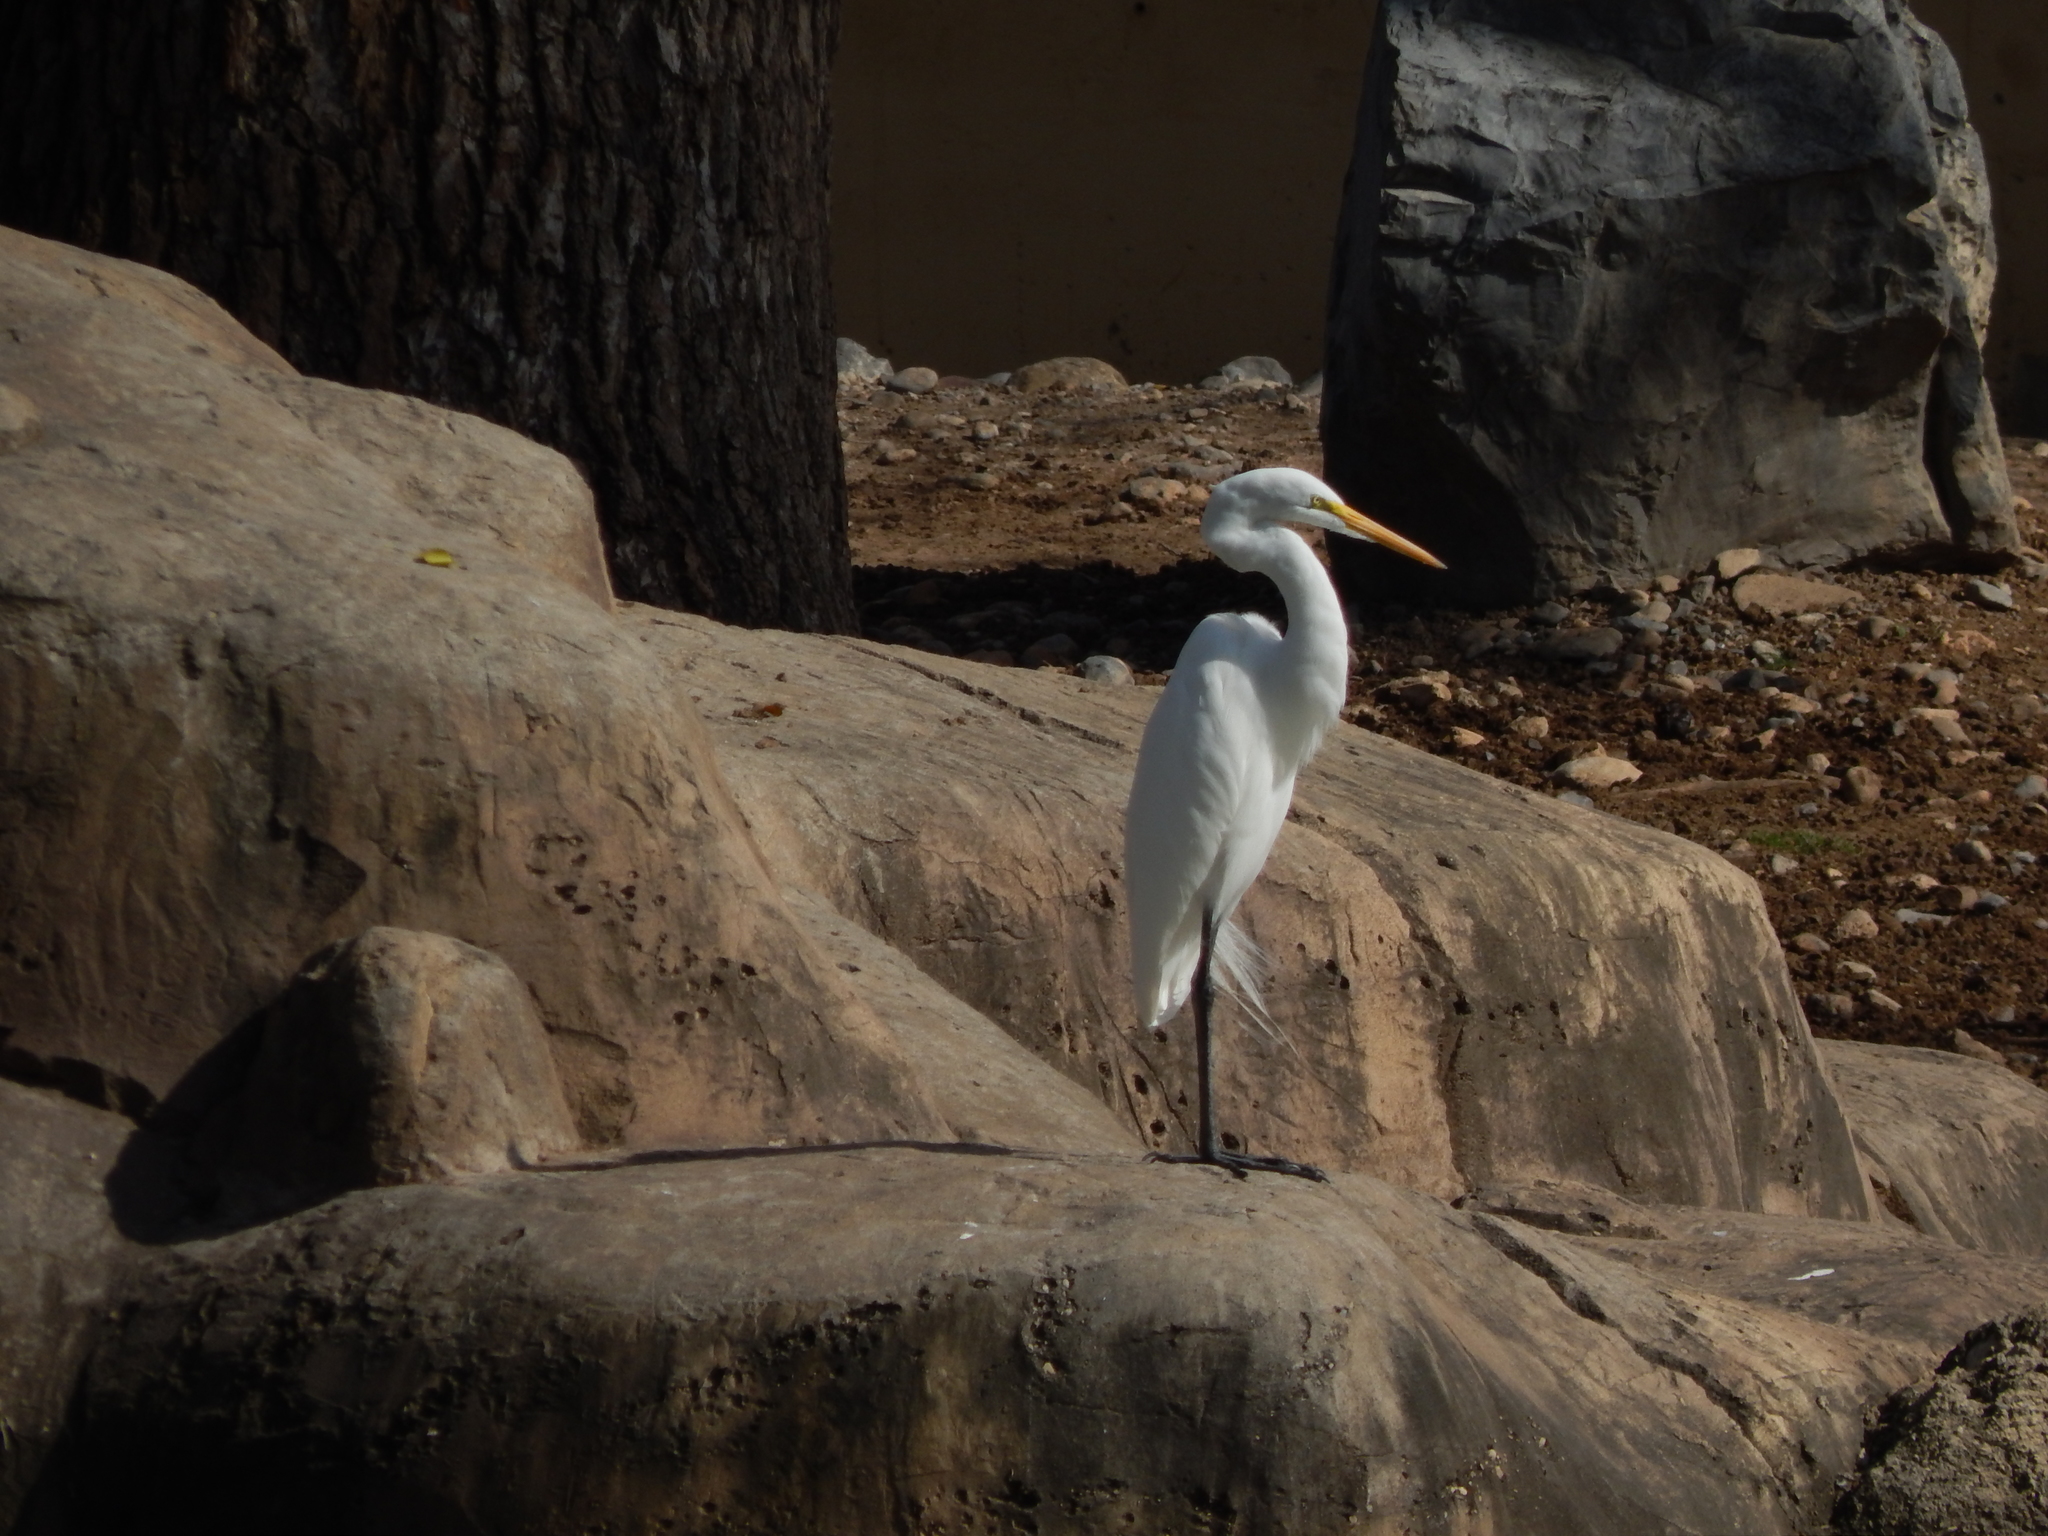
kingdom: Animalia
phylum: Chordata
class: Aves
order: Pelecaniformes
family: Ardeidae
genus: Ardea
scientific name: Ardea alba
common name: Great egret
